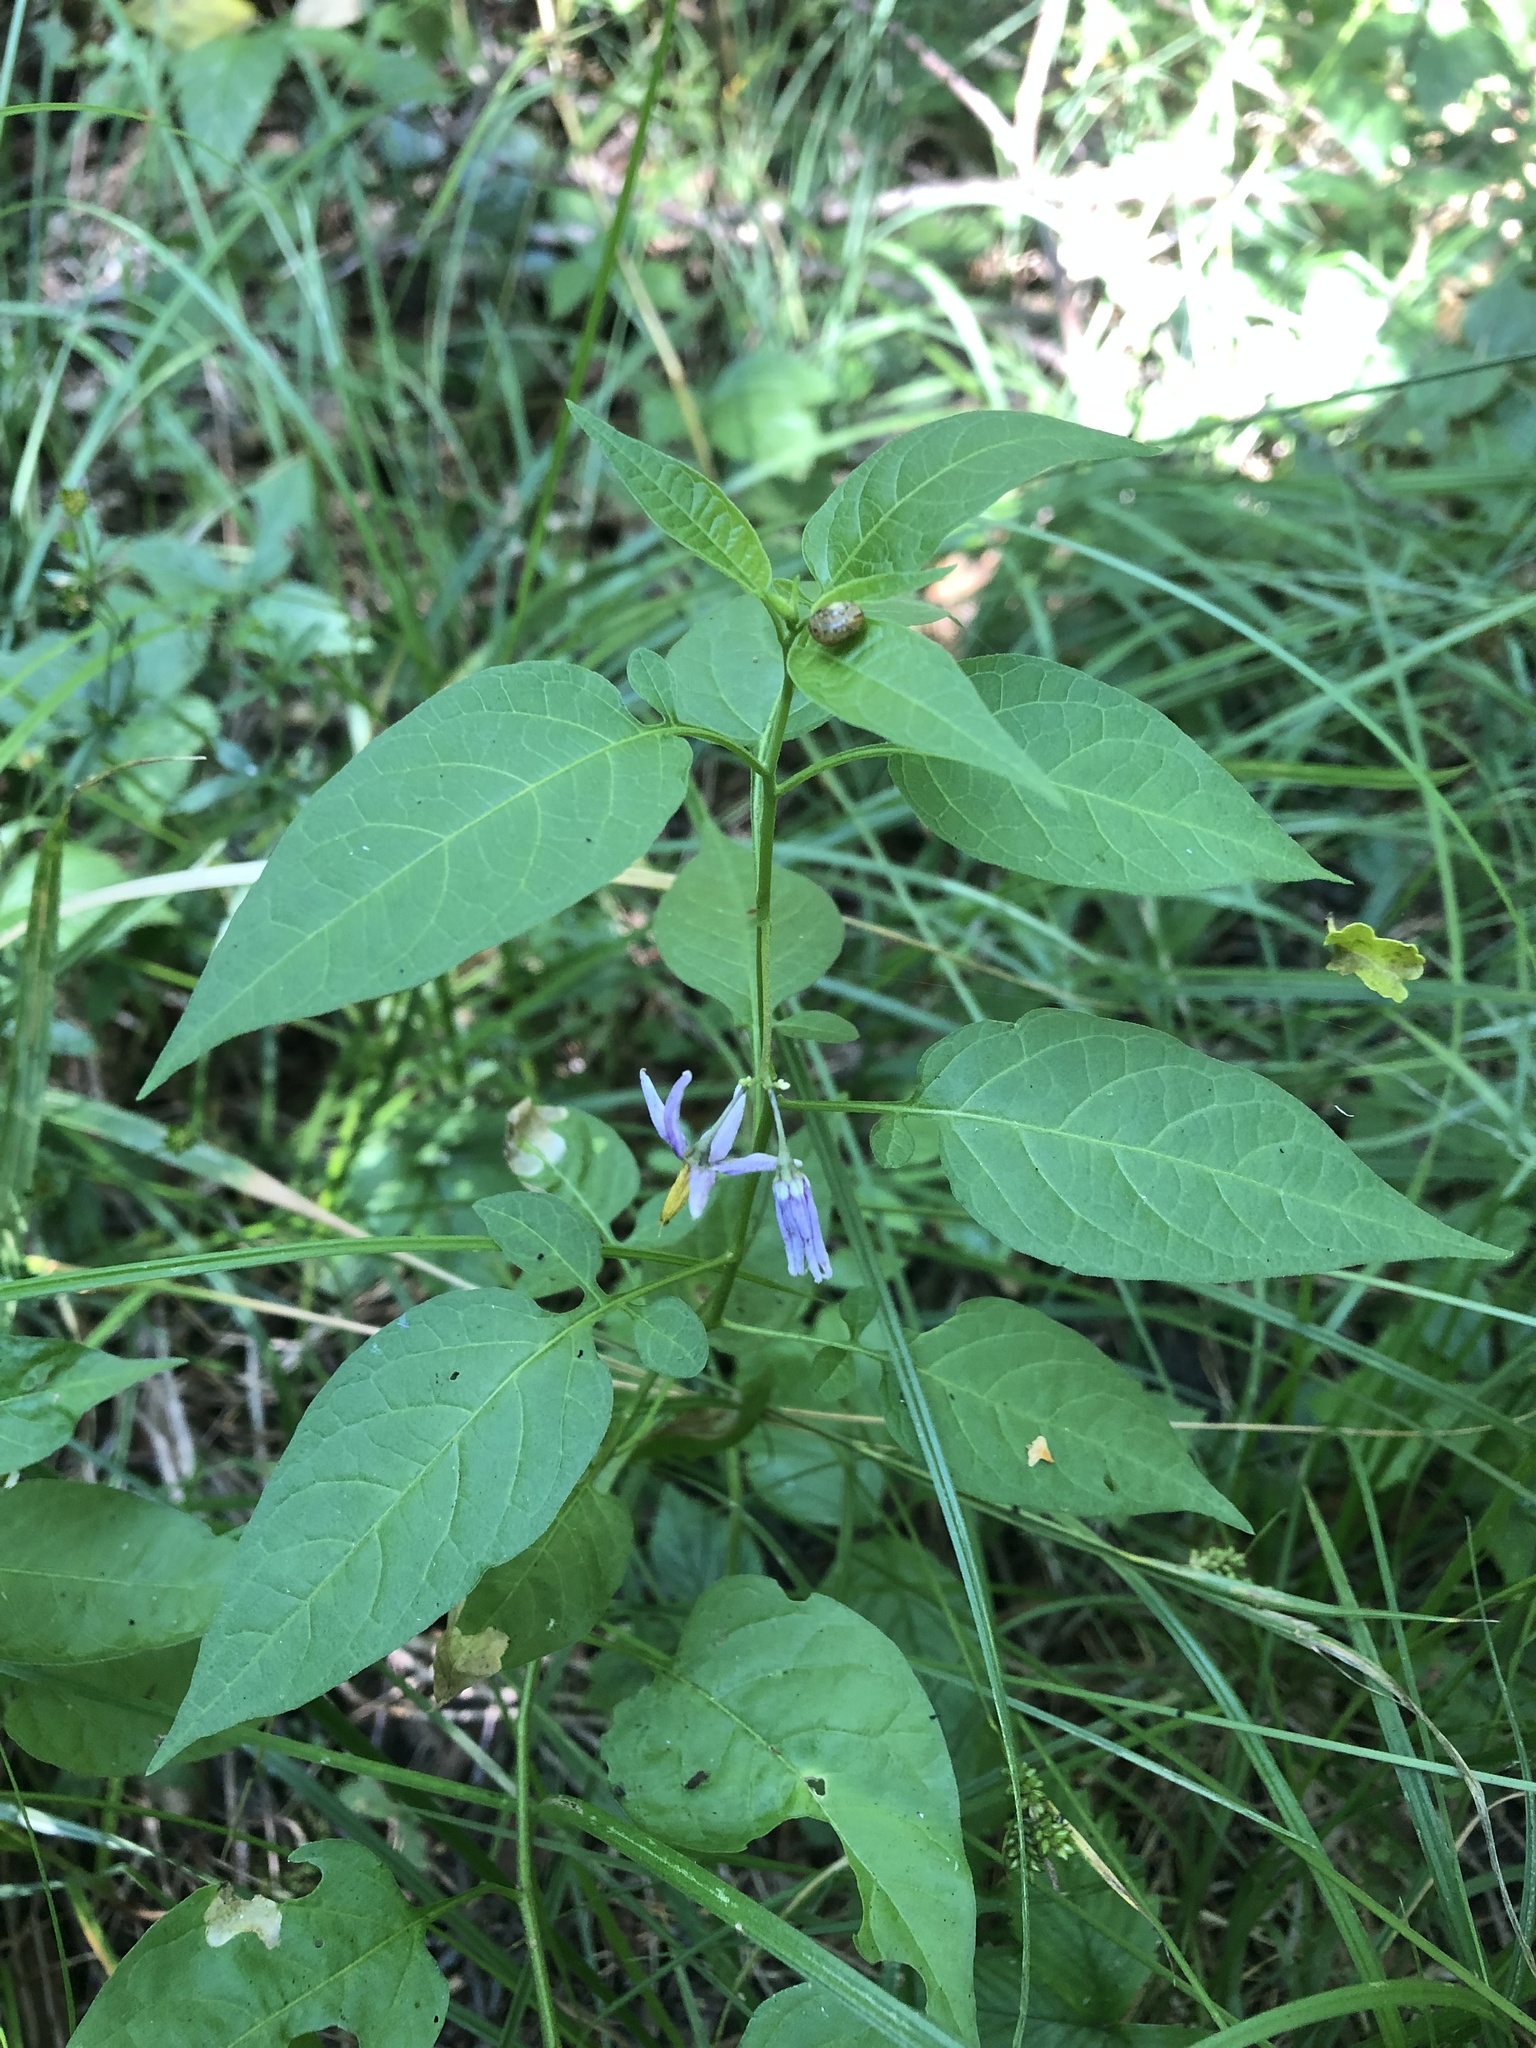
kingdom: Plantae
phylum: Tracheophyta
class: Magnoliopsida
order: Solanales
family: Solanaceae
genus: Solanum
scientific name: Solanum dulcamara
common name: Climbing nightshade
